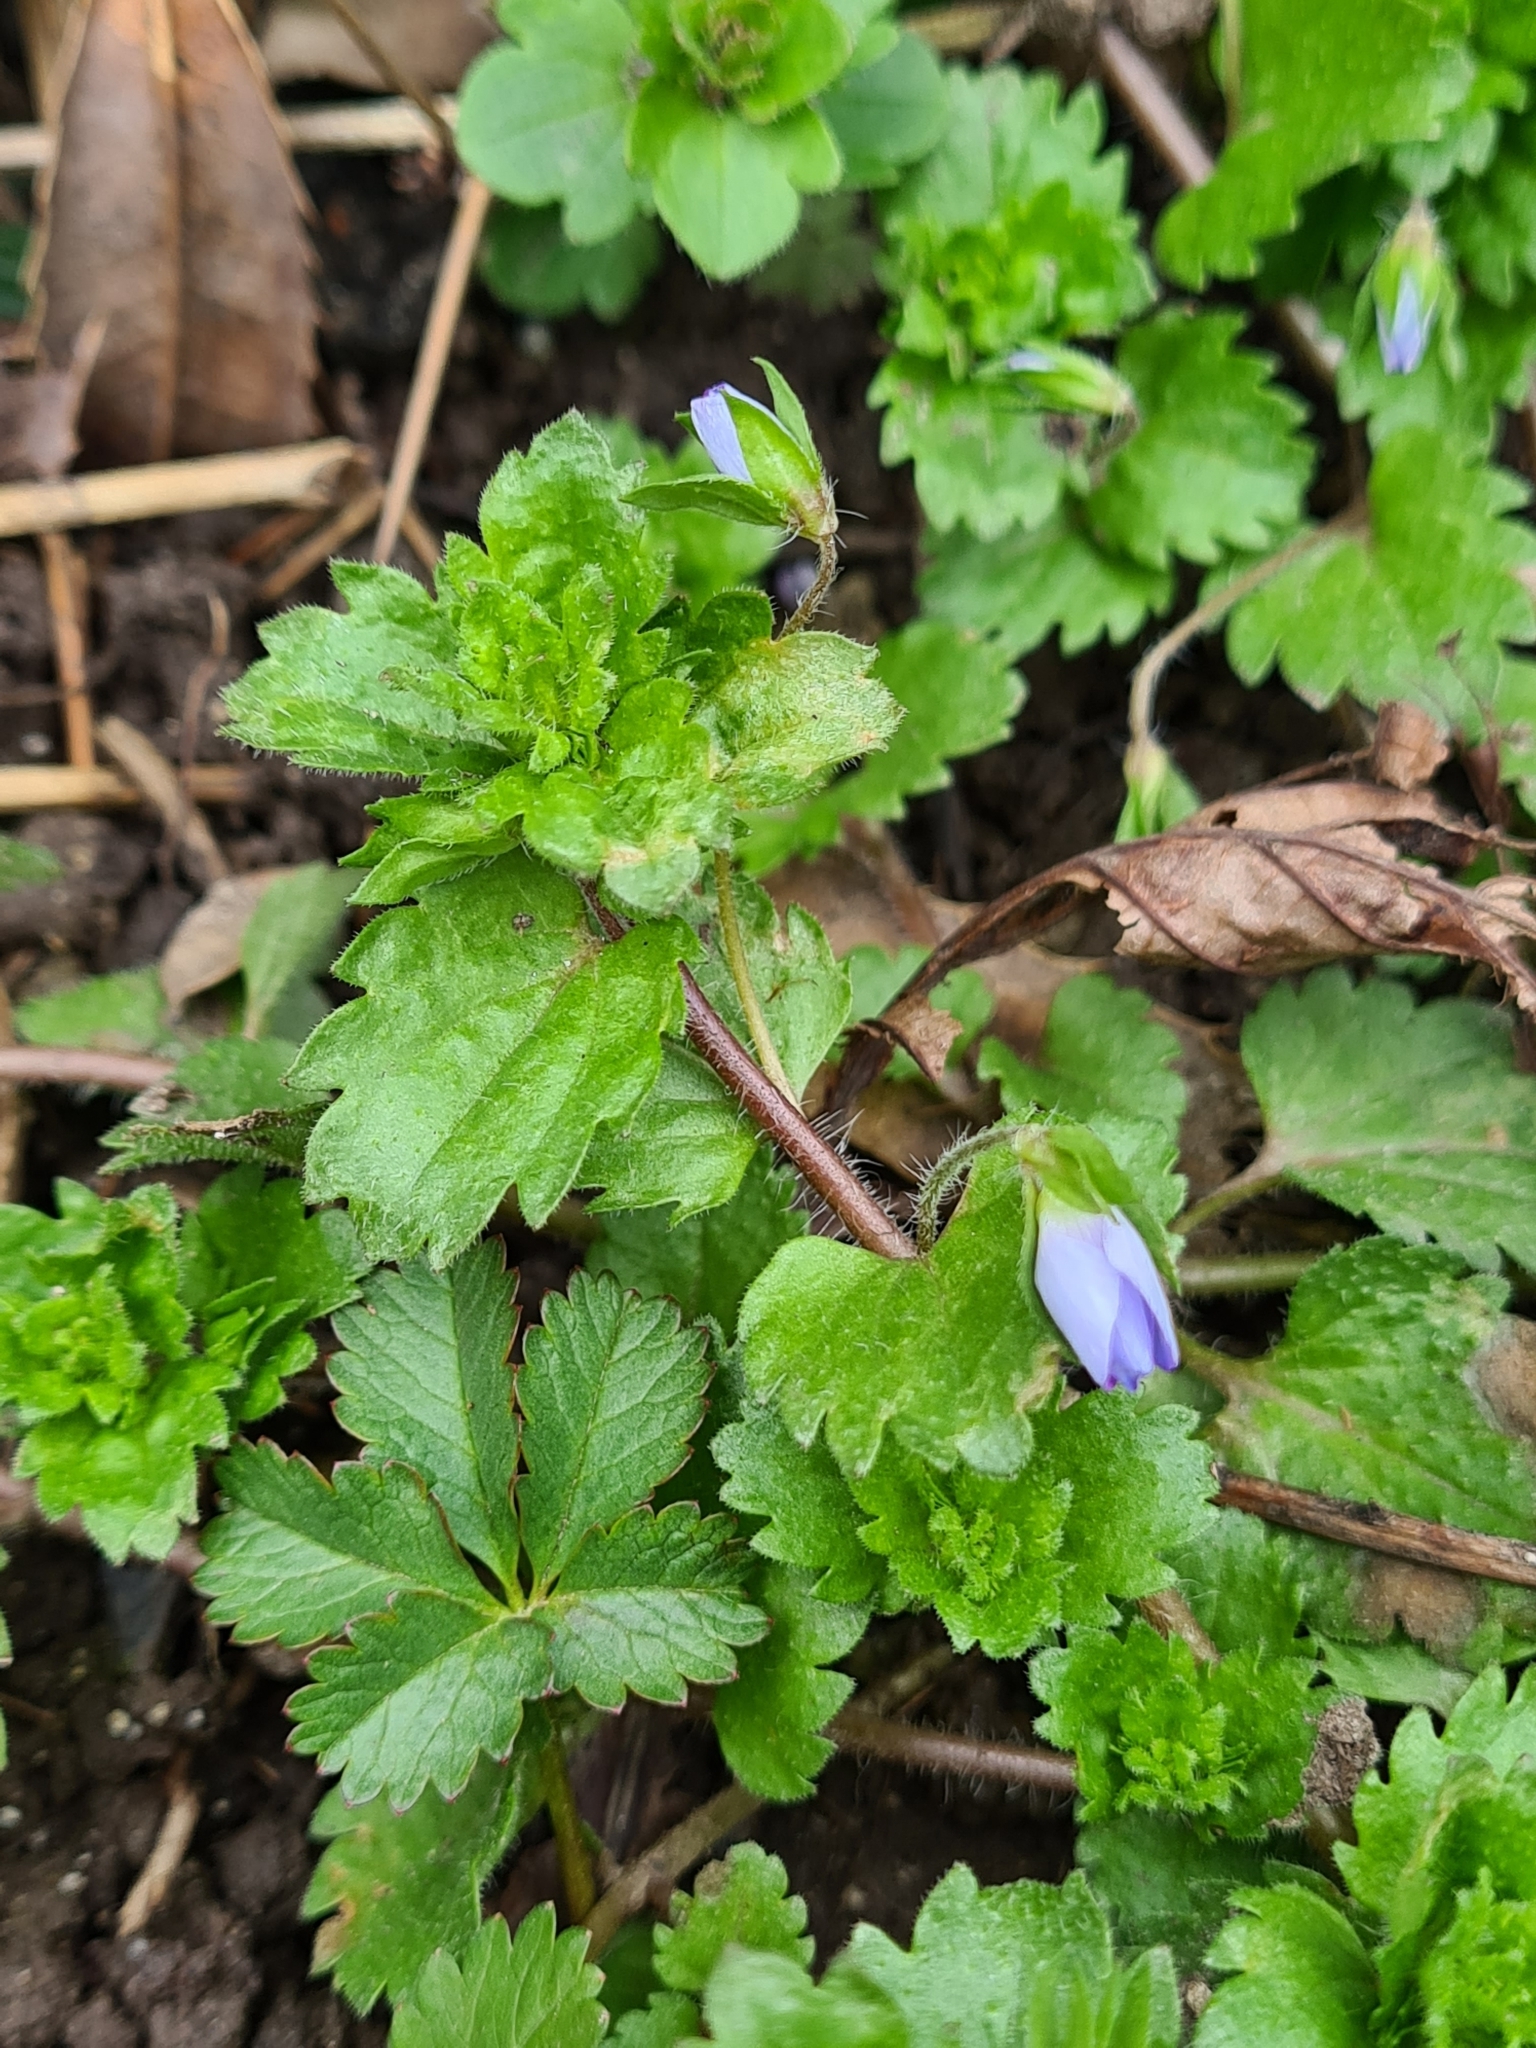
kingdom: Plantae
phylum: Tracheophyta
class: Magnoliopsida
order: Lamiales
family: Plantaginaceae
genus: Veronica
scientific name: Veronica persica
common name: Common field-speedwell
